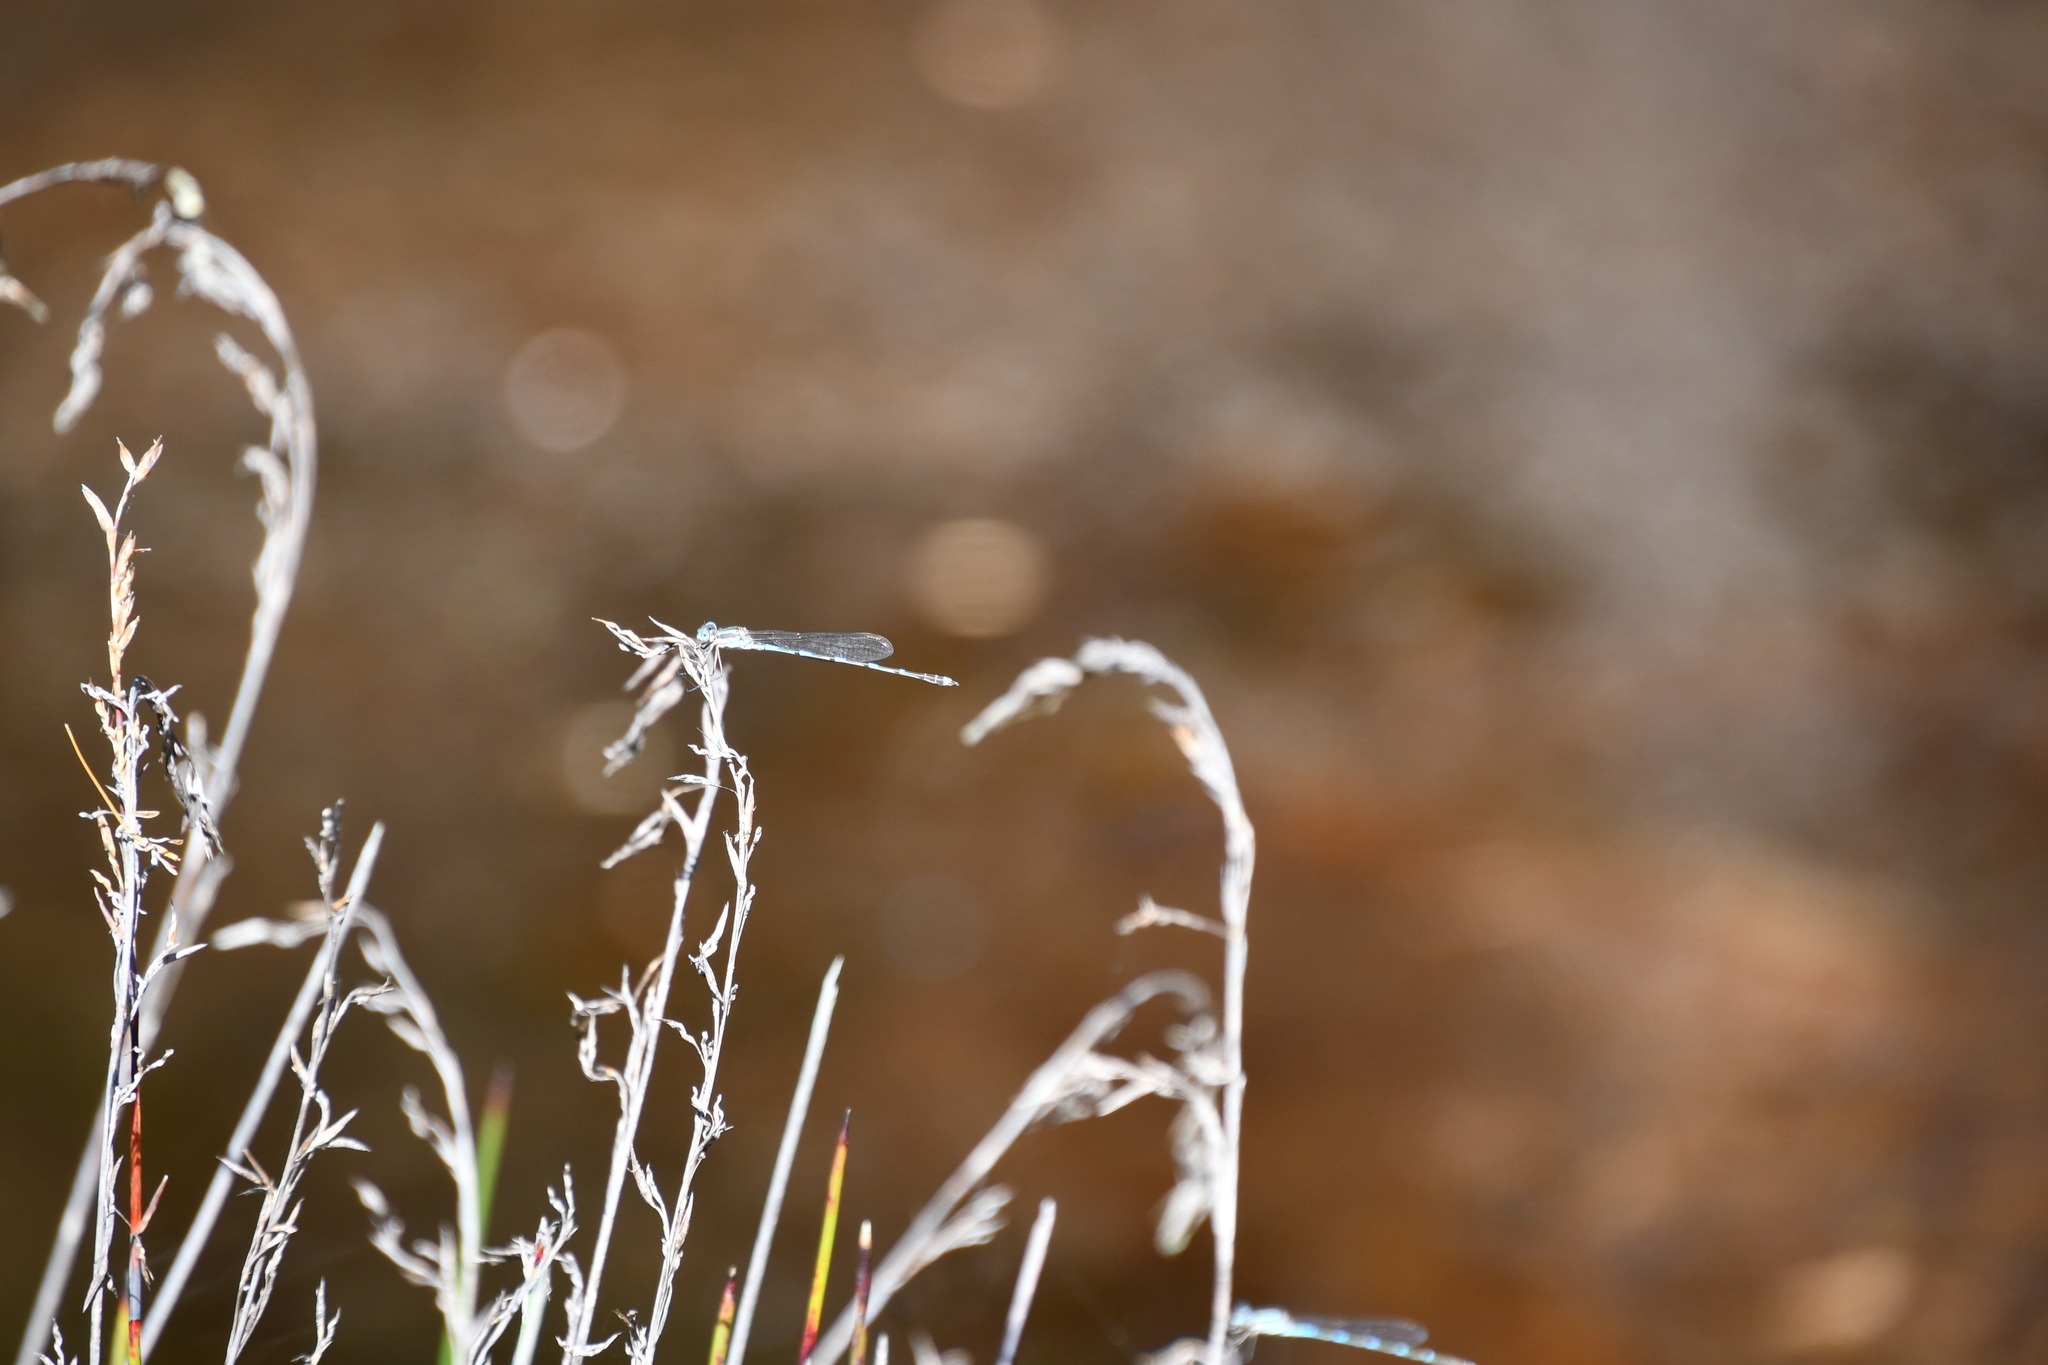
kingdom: Animalia
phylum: Arthropoda
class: Insecta
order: Odonata
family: Lestidae
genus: Austrolestes
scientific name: Austrolestes leda
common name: Wandering ringtail
